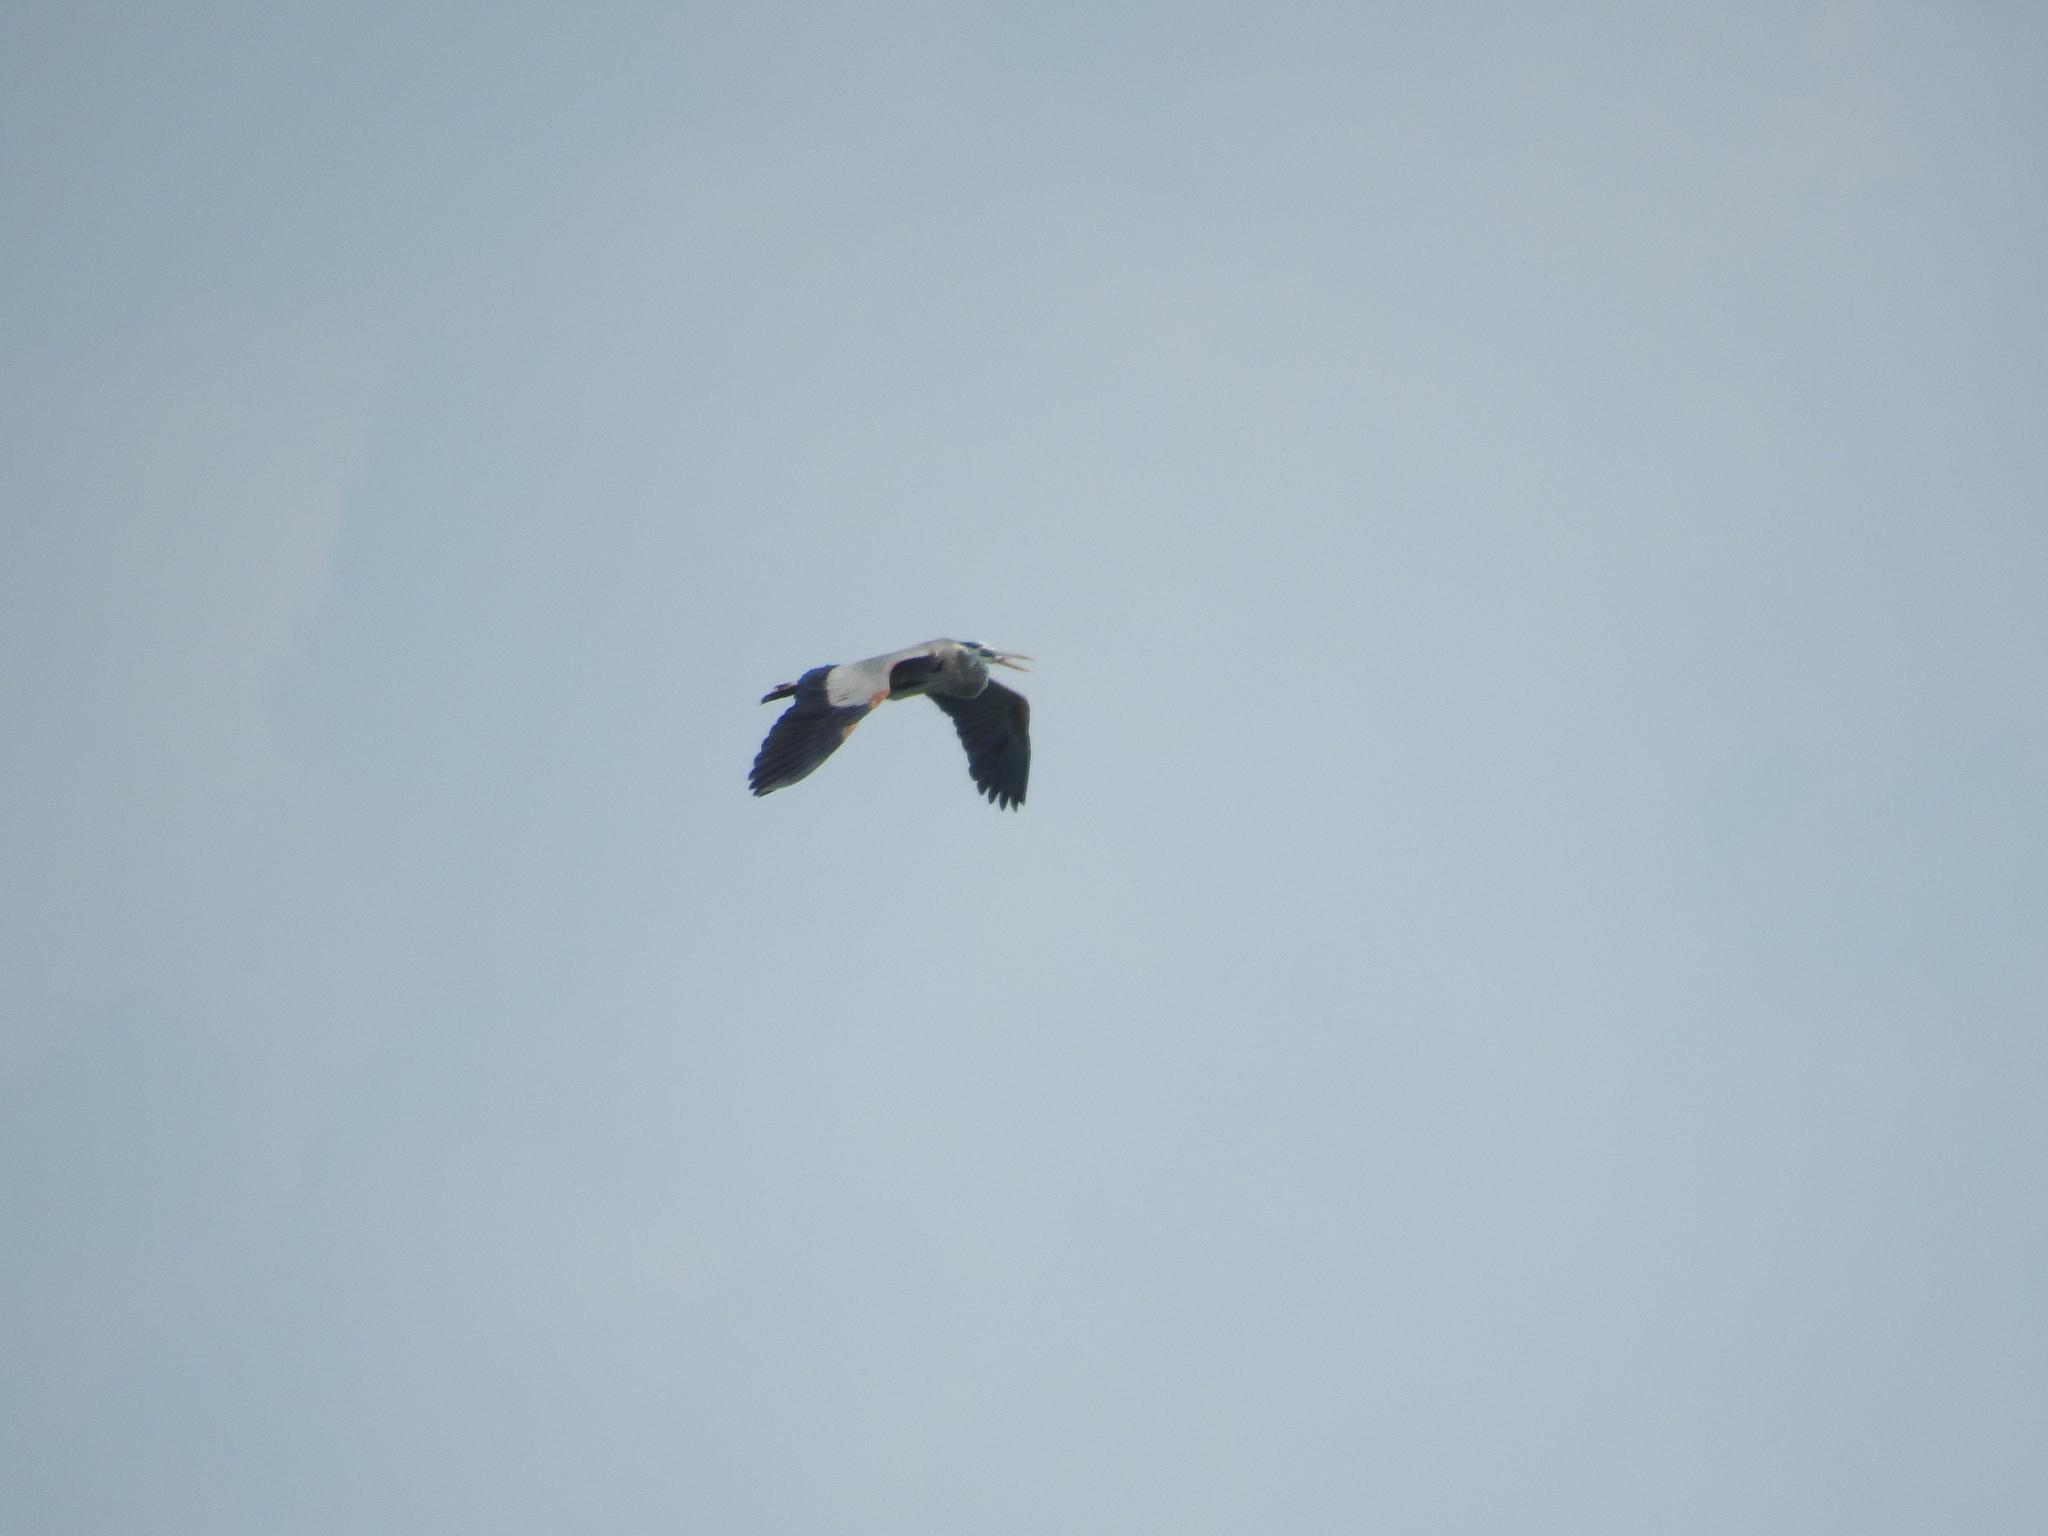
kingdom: Animalia
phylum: Chordata
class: Aves
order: Pelecaniformes
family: Ardeidae
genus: Ardea
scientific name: Ardea herodias
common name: Great blue heron
